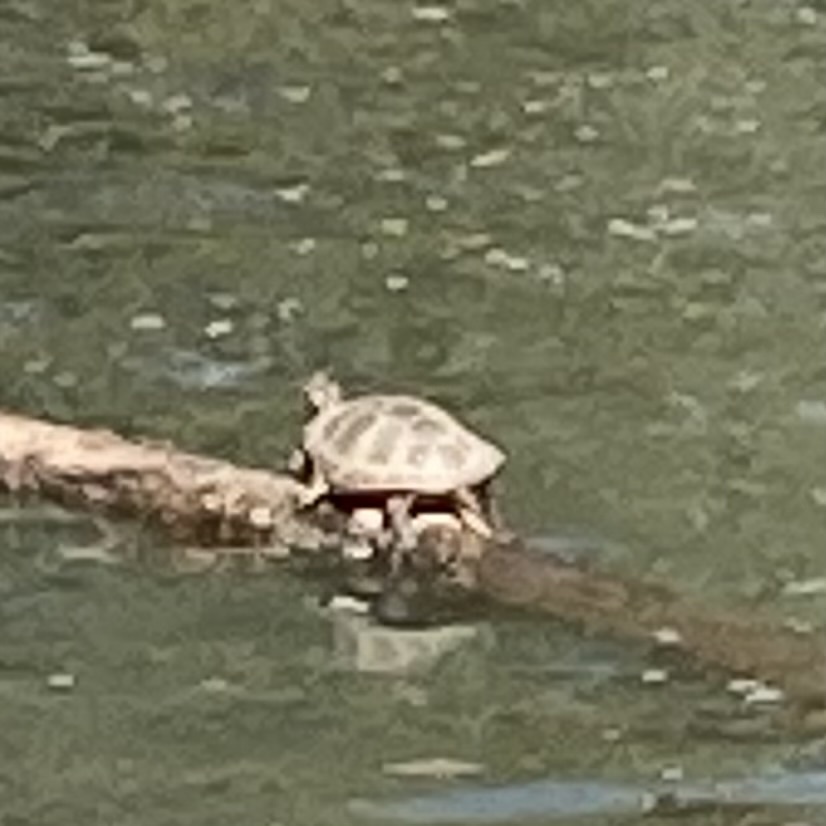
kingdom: Animalia
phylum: Chordata
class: Testudines
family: Emydidae
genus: Chrysemys
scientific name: Chrysemys picta
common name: Painted turtle
